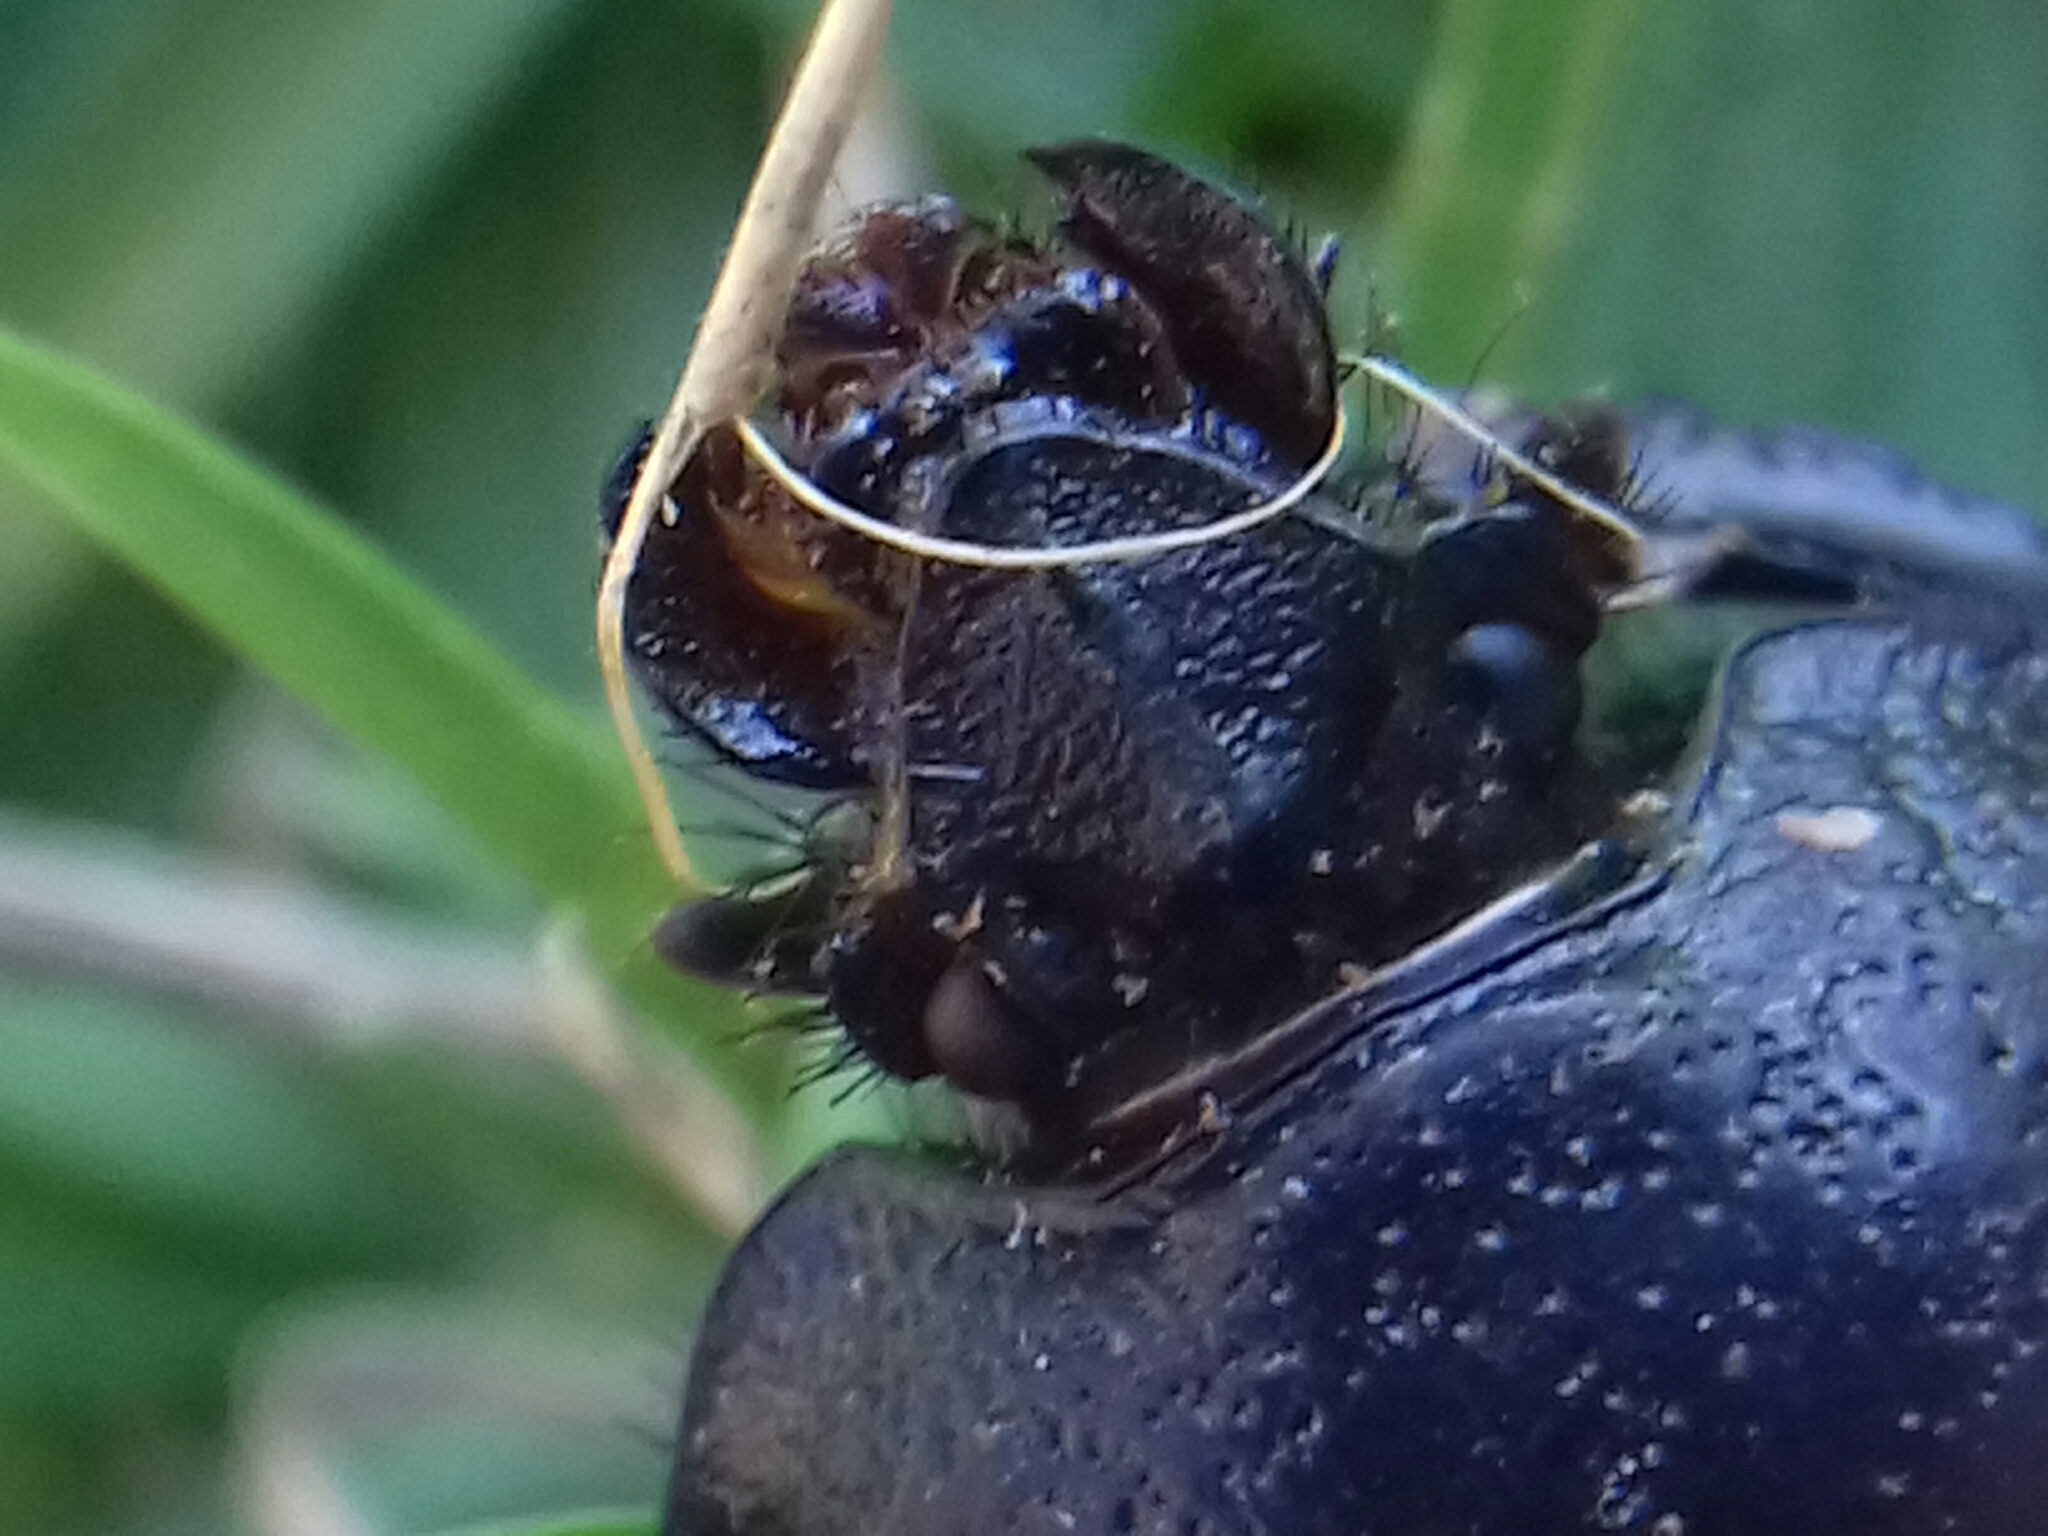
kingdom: Animalia
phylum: Arthropoda
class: Insecta
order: Coleoptera
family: Geotrupidae
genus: Ceratotrupes
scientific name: Ceratotrupes fronticornis
